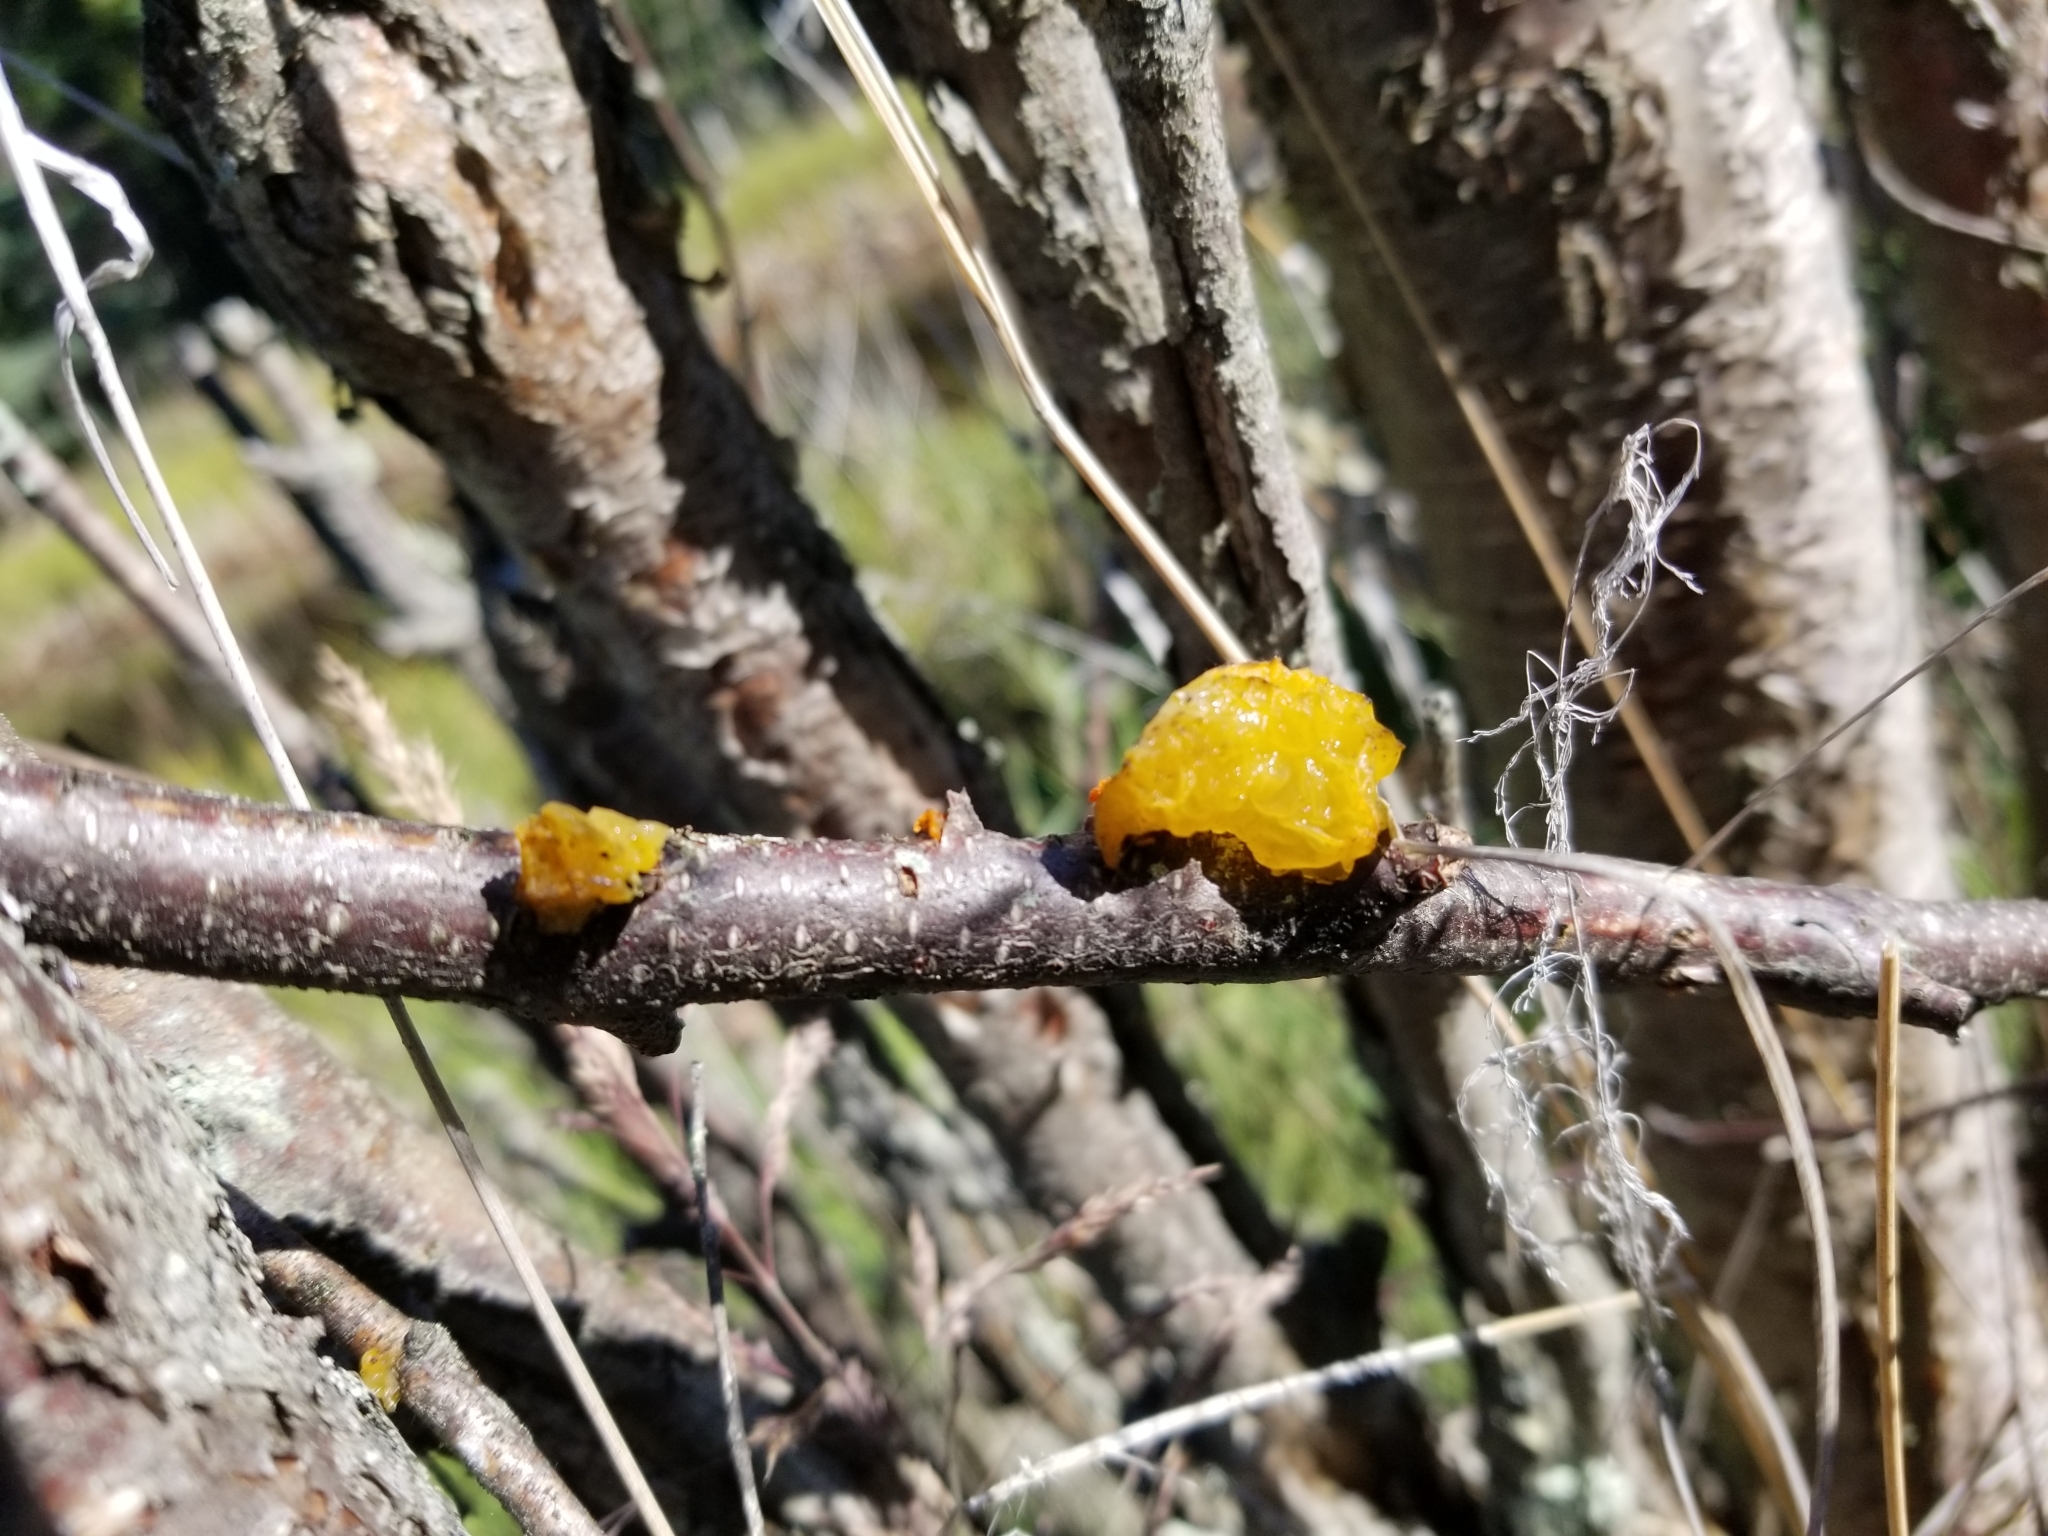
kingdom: Fungi
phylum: Basidiomycota
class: Tremellomycetes
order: Tremellales
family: Tremellaceae
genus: Tremella
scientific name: Tremella mesenterica
